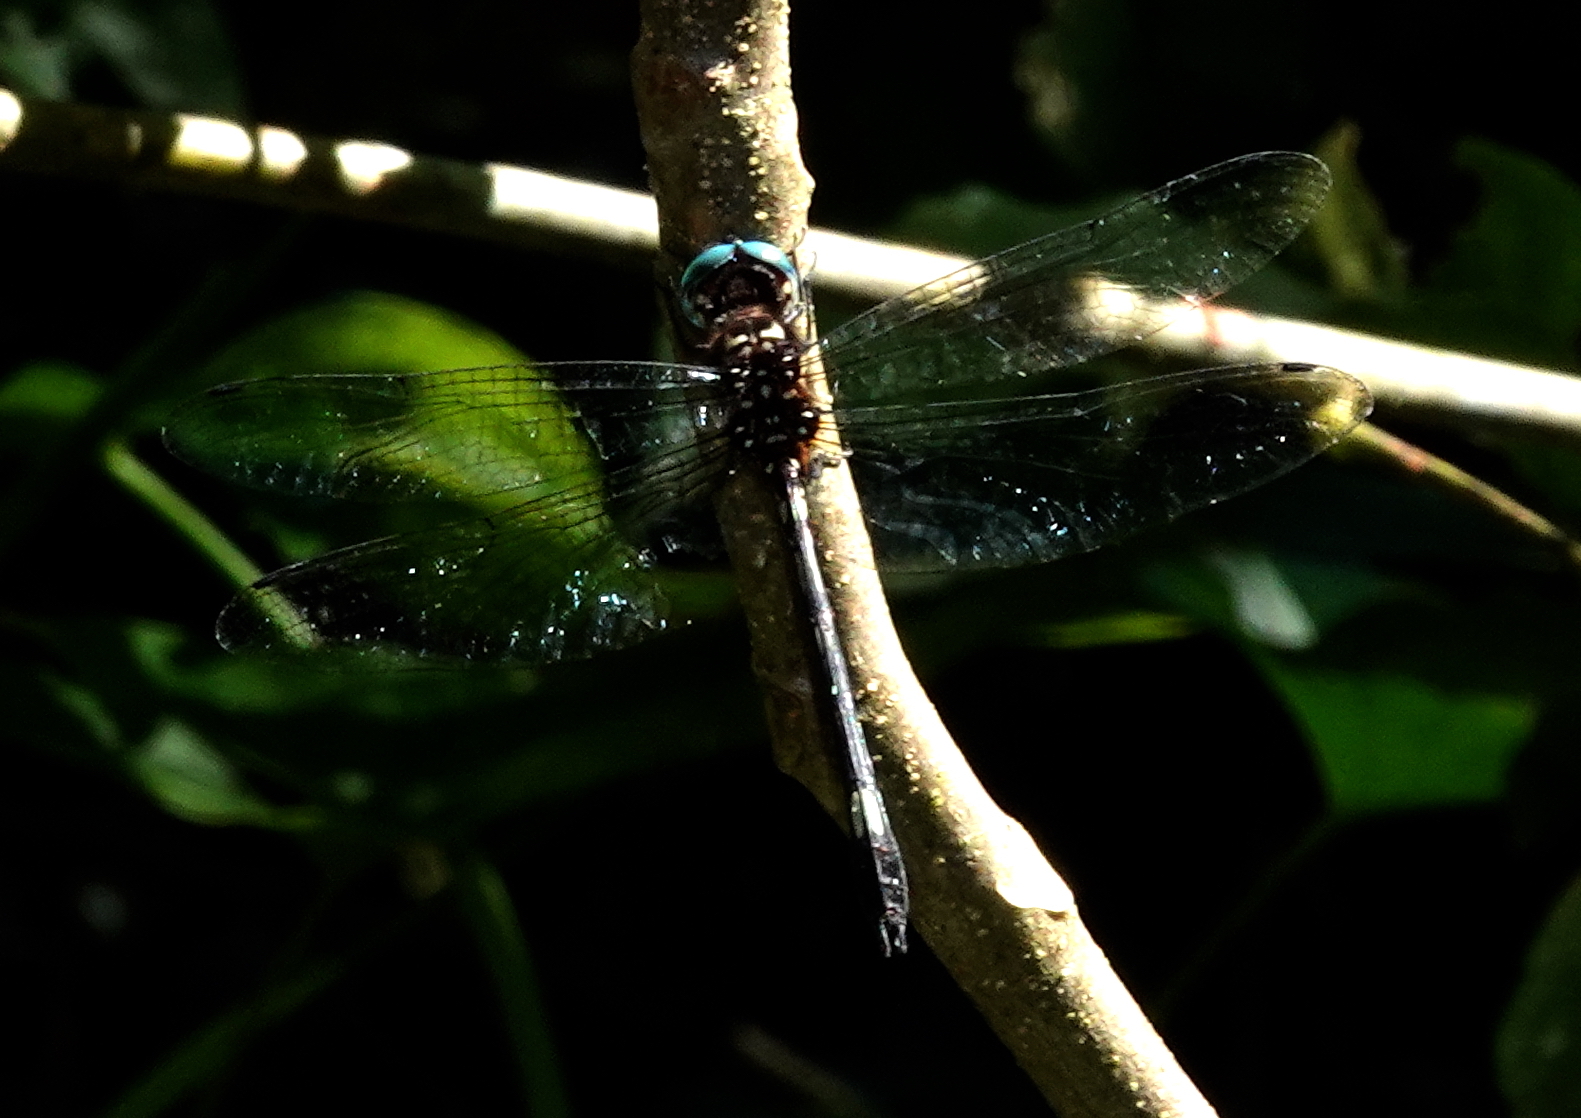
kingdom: Animalia
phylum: Arthropoda
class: Insecta
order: Odonata
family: Libellulidae
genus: Brechmorhoga
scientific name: Brechmorhoga pertinax
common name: Masked clubskimmer
